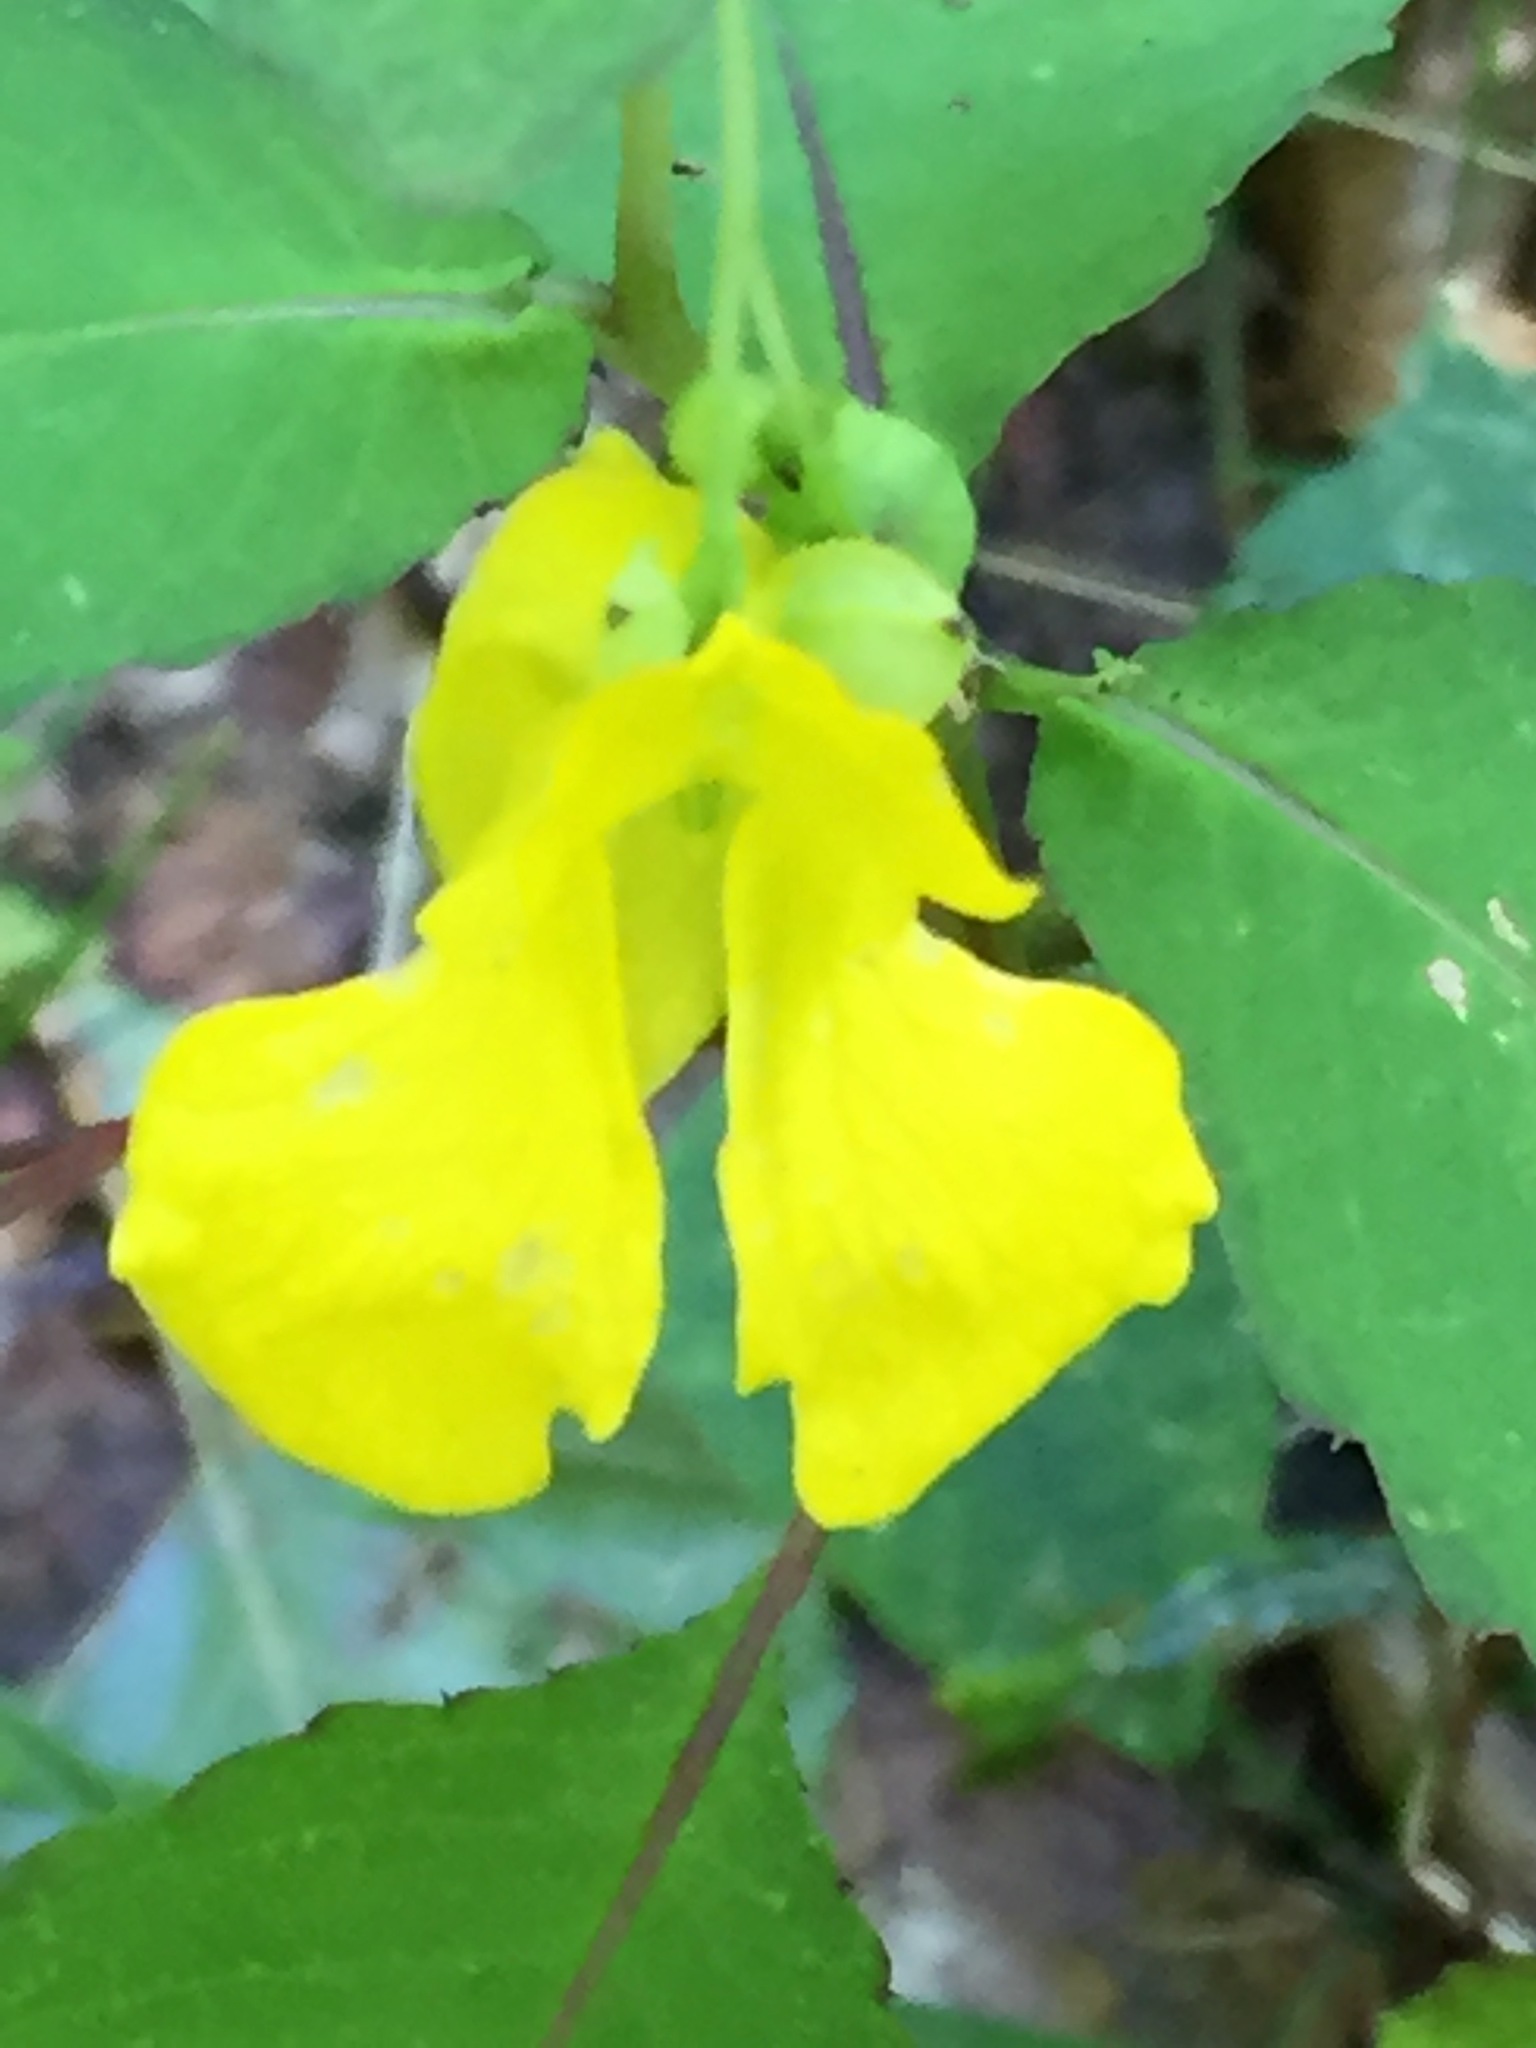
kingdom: Plantae
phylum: Tracheophyta
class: Magnoliopsida
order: Ericales
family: Balsaminaceae
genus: Impatiens
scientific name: Impatiens pallida
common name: Pale snapweed
